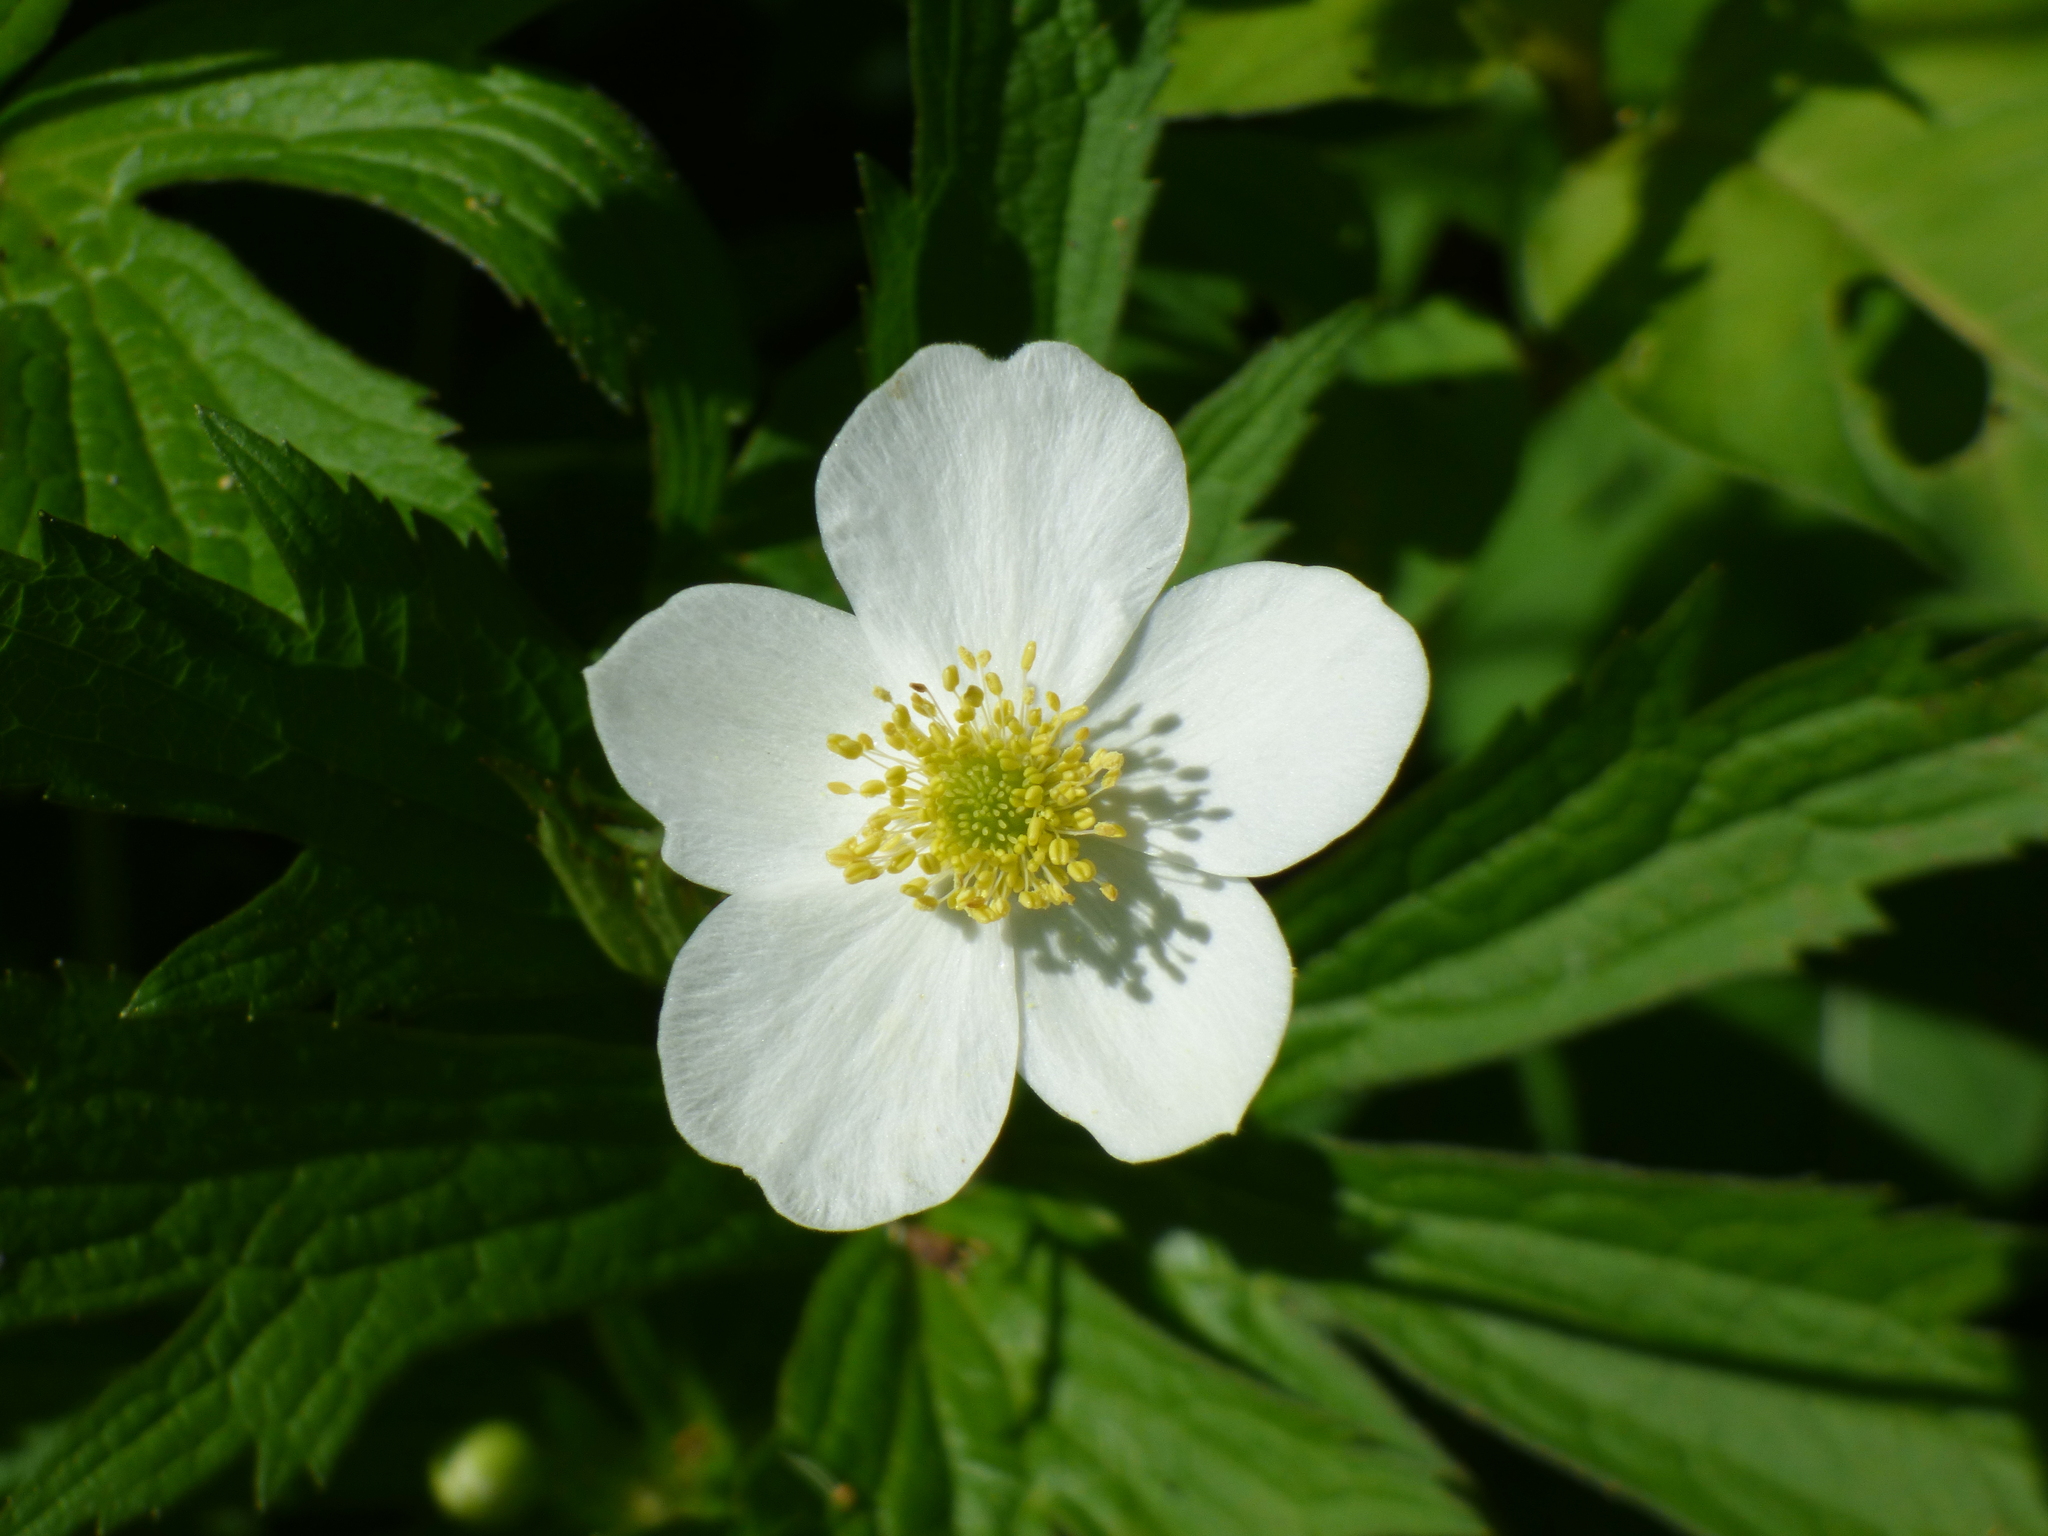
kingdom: Plantae
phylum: Tracheophyta
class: Magnoliopsida
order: Ranunculales
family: Ranunculaceae
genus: Anemonastrum
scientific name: Anemonastrum canadense
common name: Canada anemone
